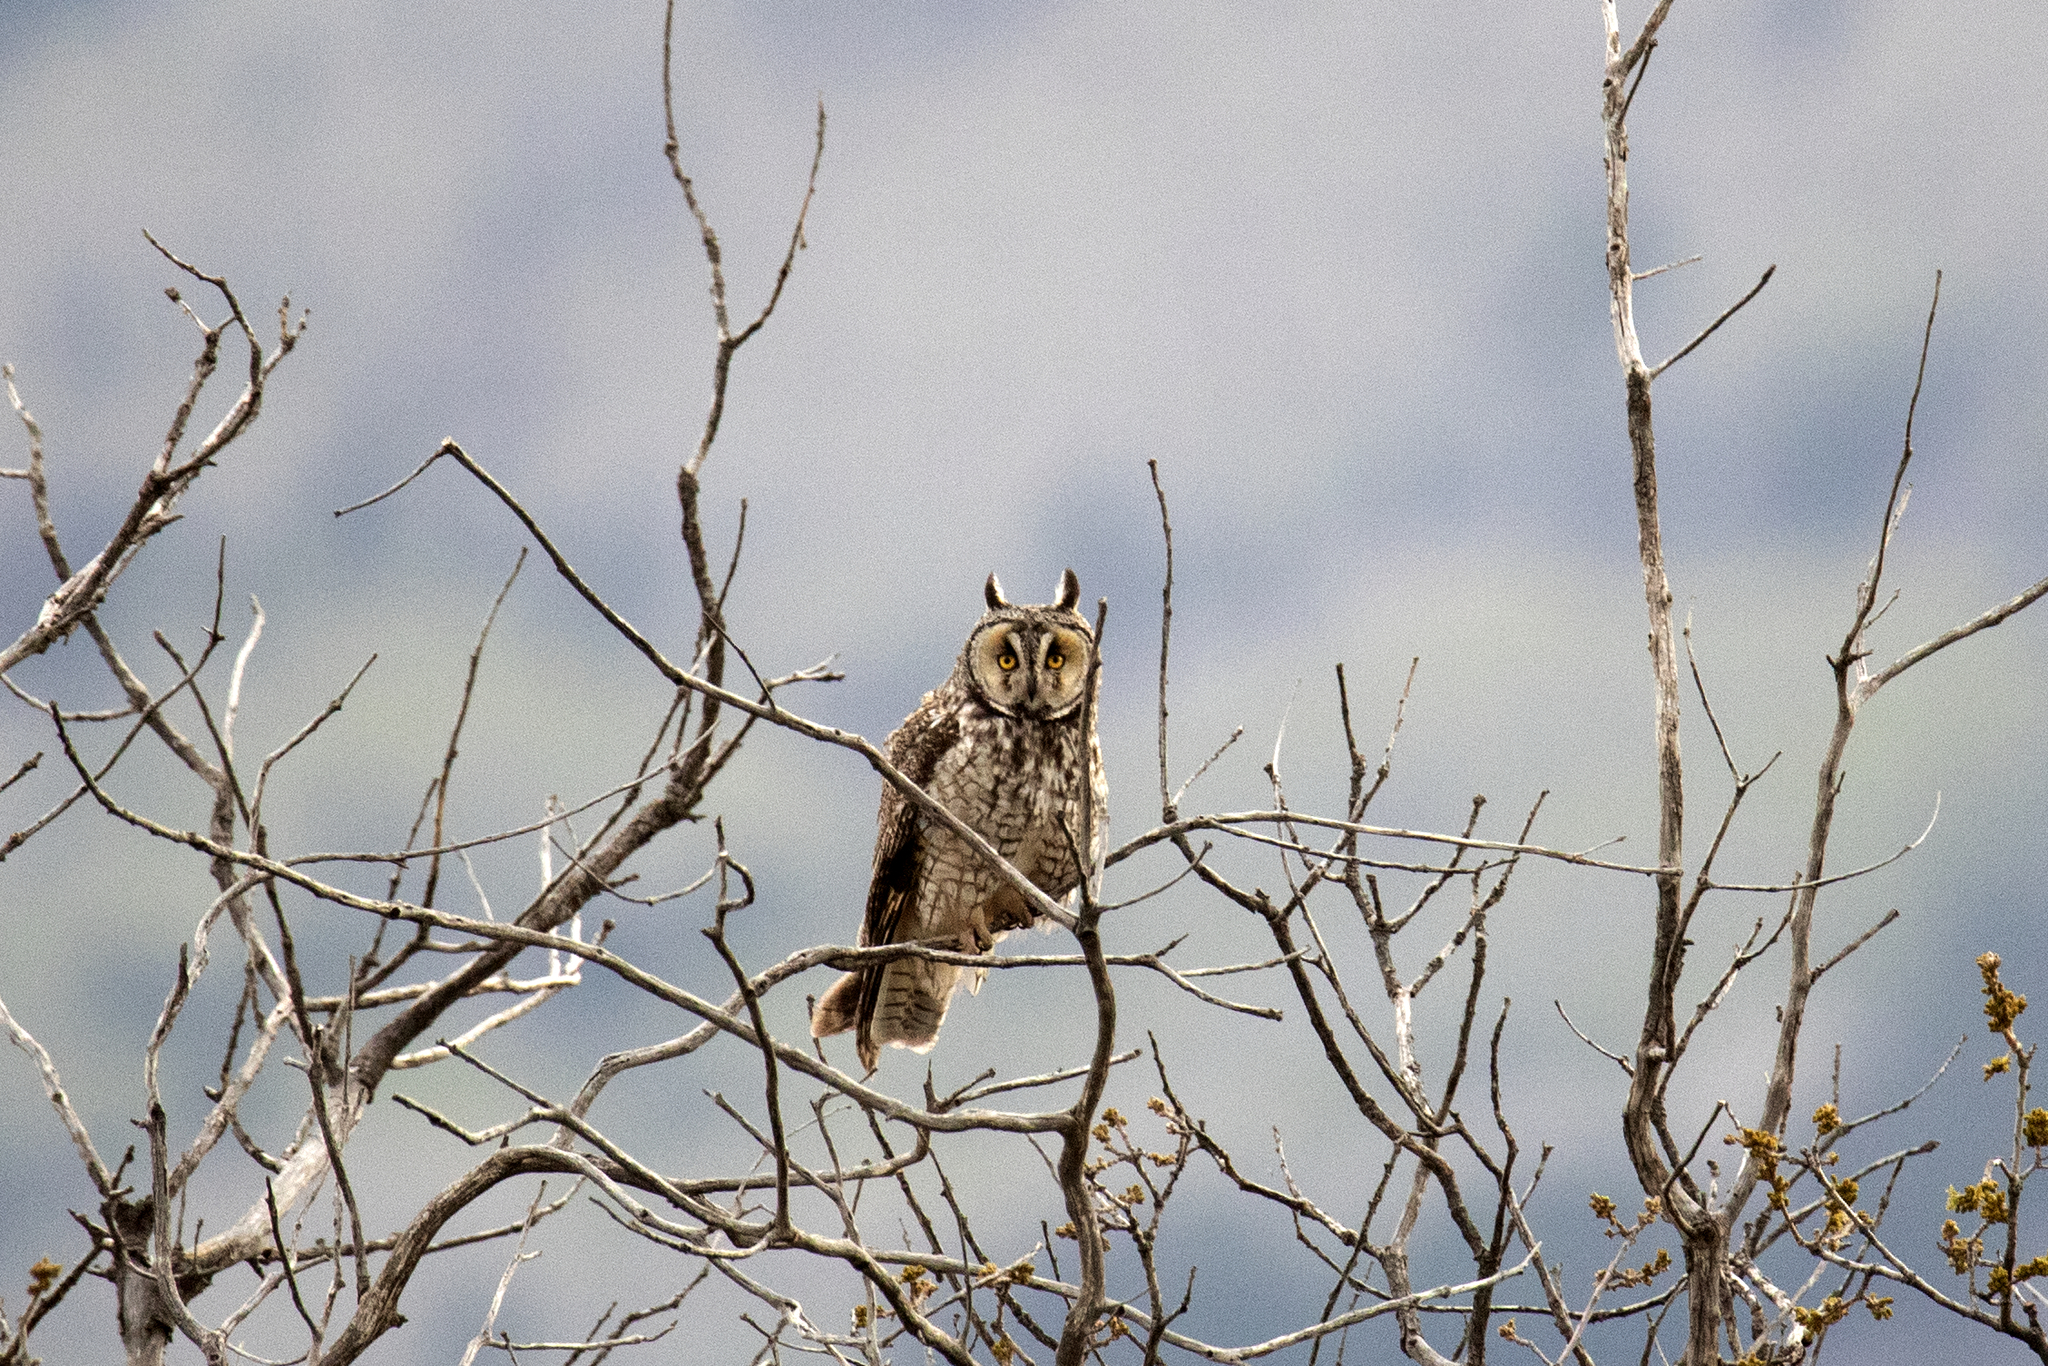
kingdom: Animalia
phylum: Chordata
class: Aves
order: Strigiformes
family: Strigidae
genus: Asio
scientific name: Asio otus
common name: Long-eared owl
